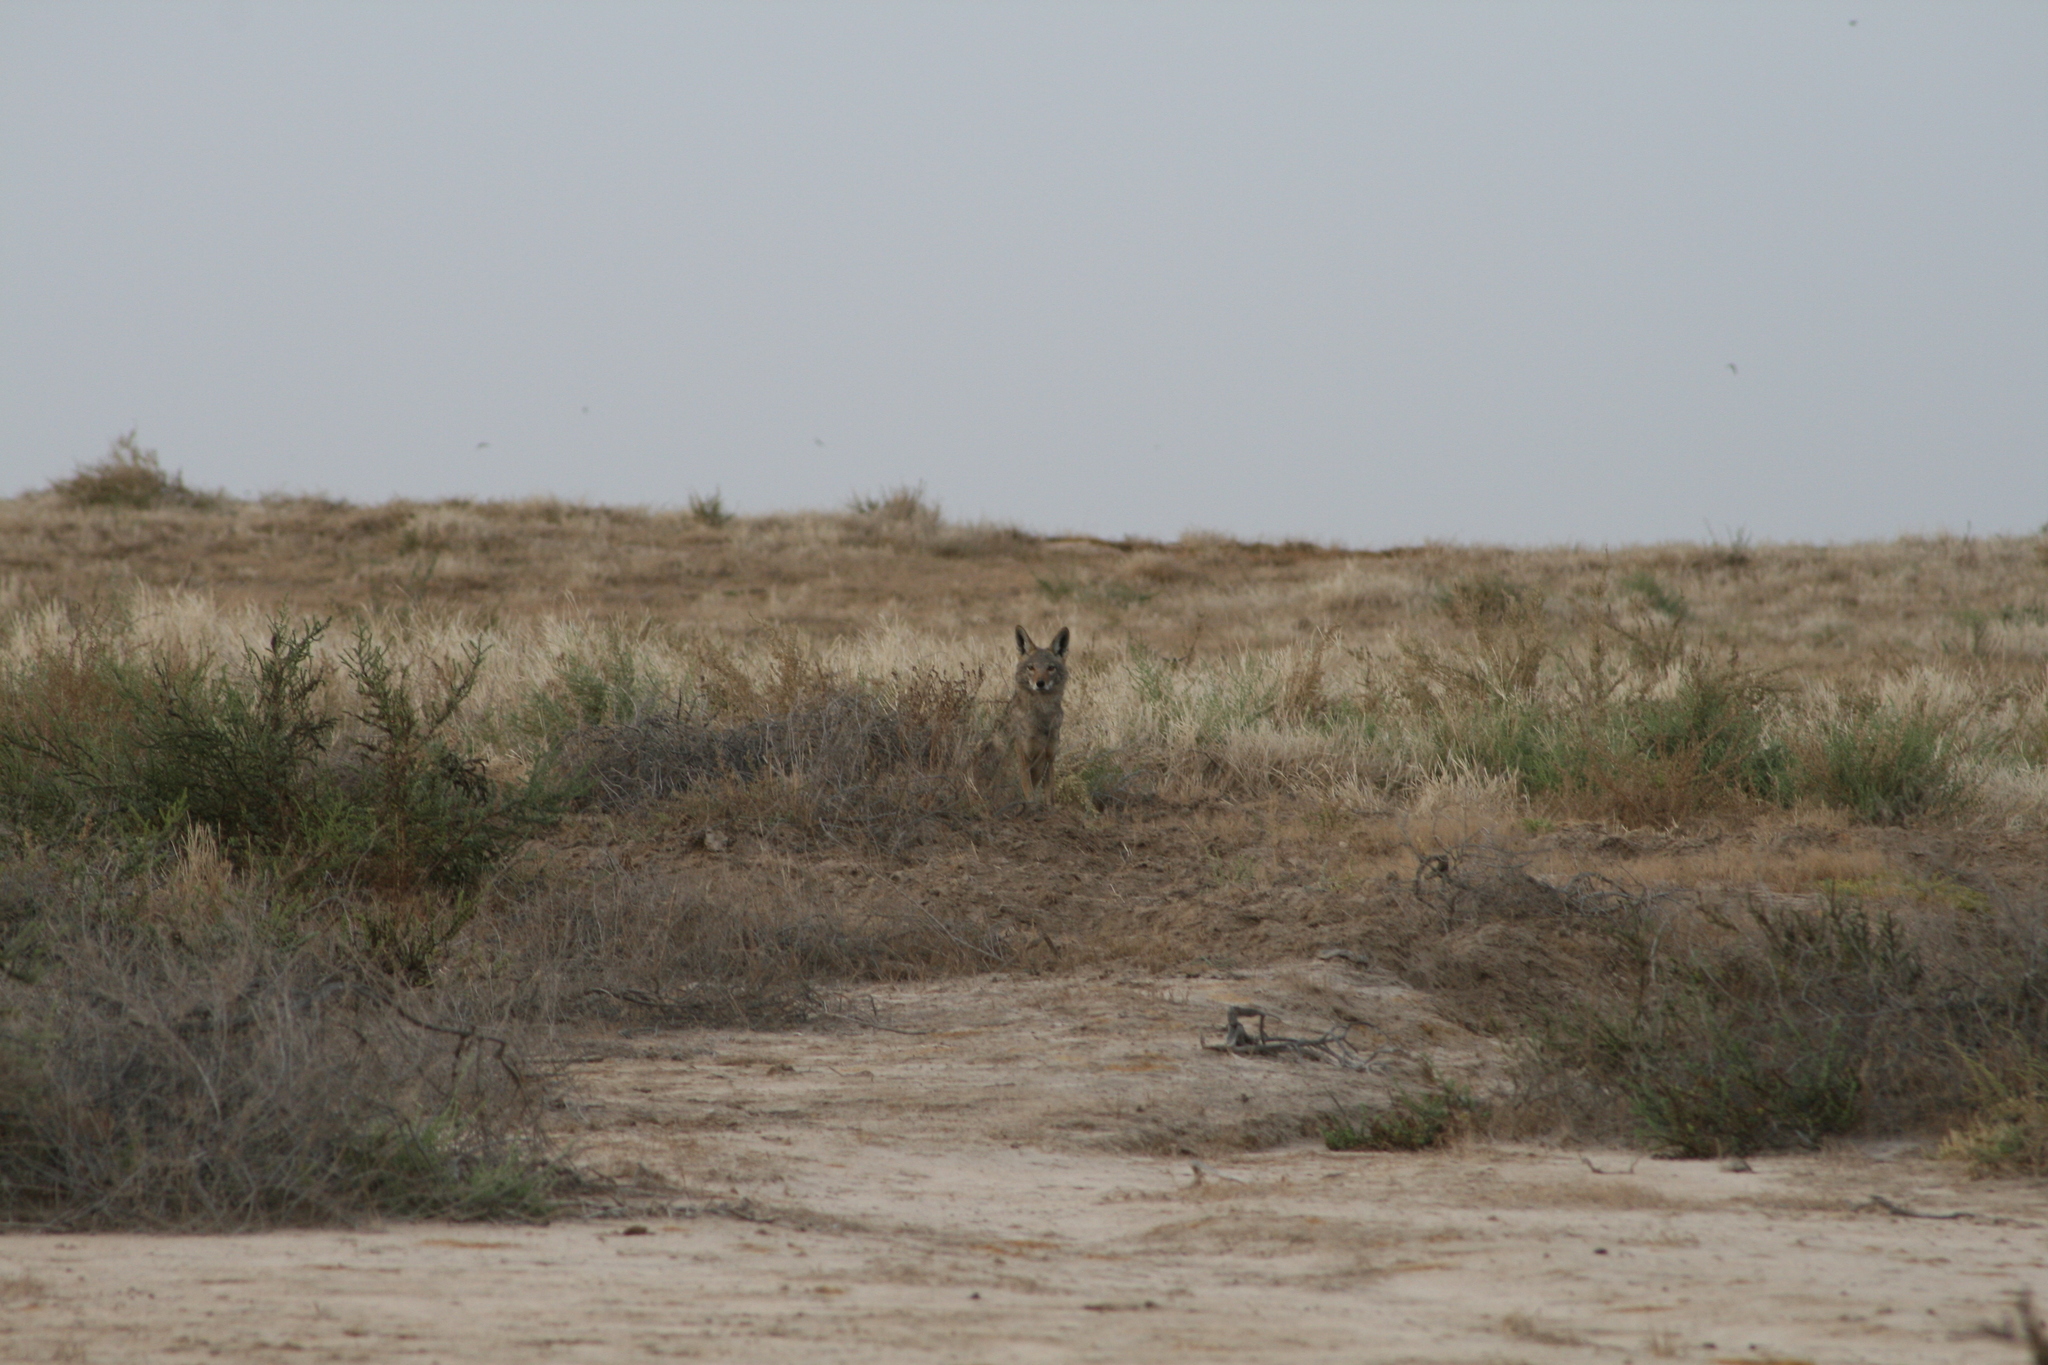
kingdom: Animalia
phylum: Chordata
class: Mammalia
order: Carnivora
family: Canidae
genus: Canis
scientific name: Canis lupaster
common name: African golden wolf
